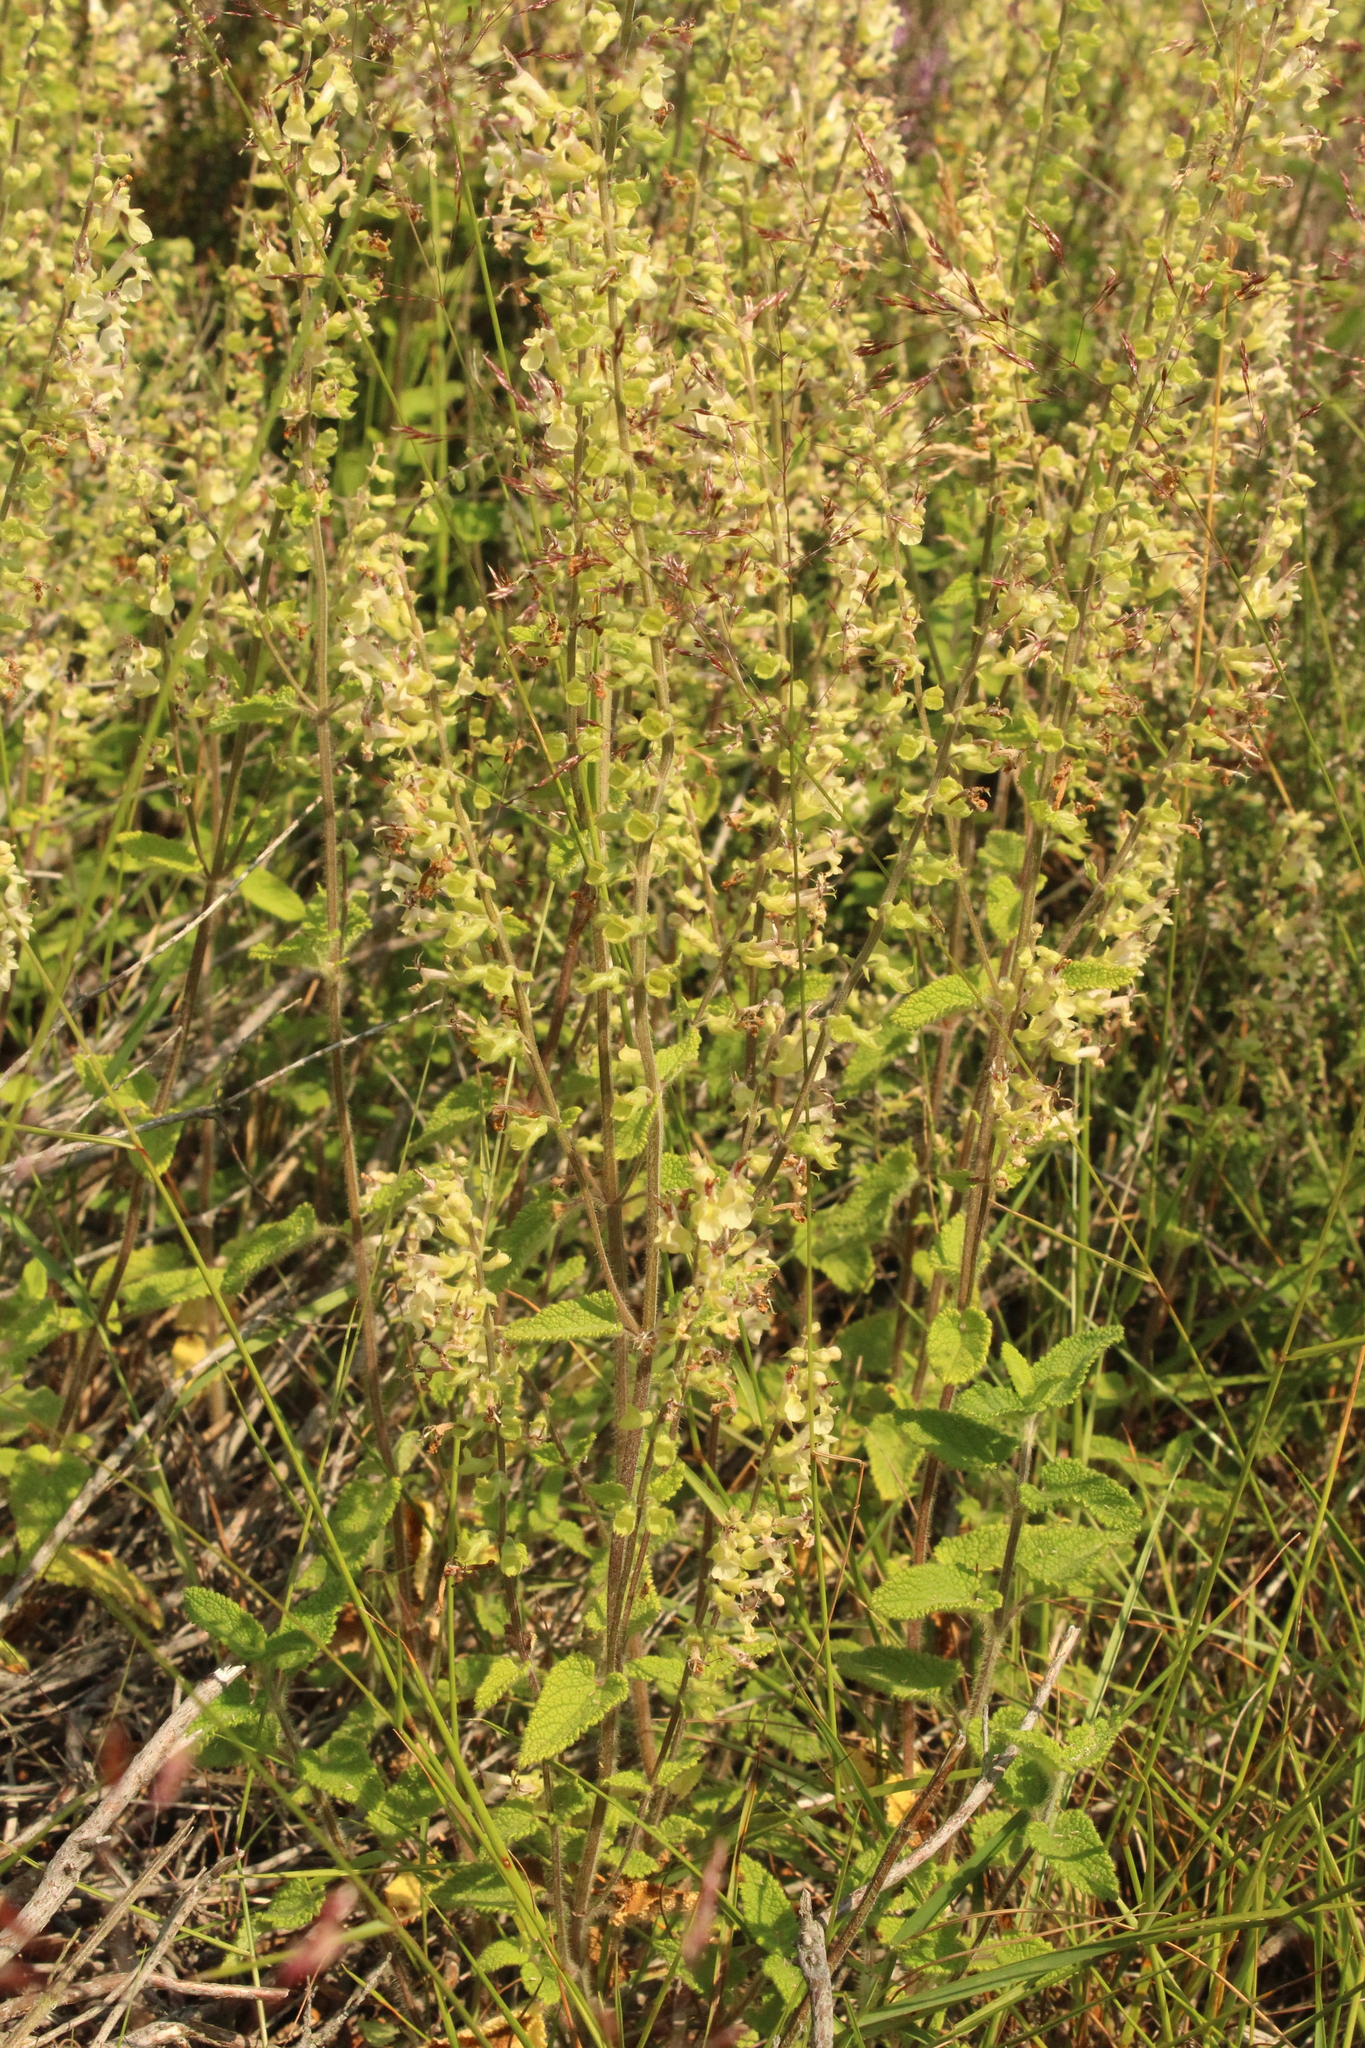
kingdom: Plantae
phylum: Tracheophyta
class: Magnoliopsida
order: Lamiales
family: Lamiaceae
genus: Teucrium
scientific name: Teucrium scorodonia
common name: Woodland germander
